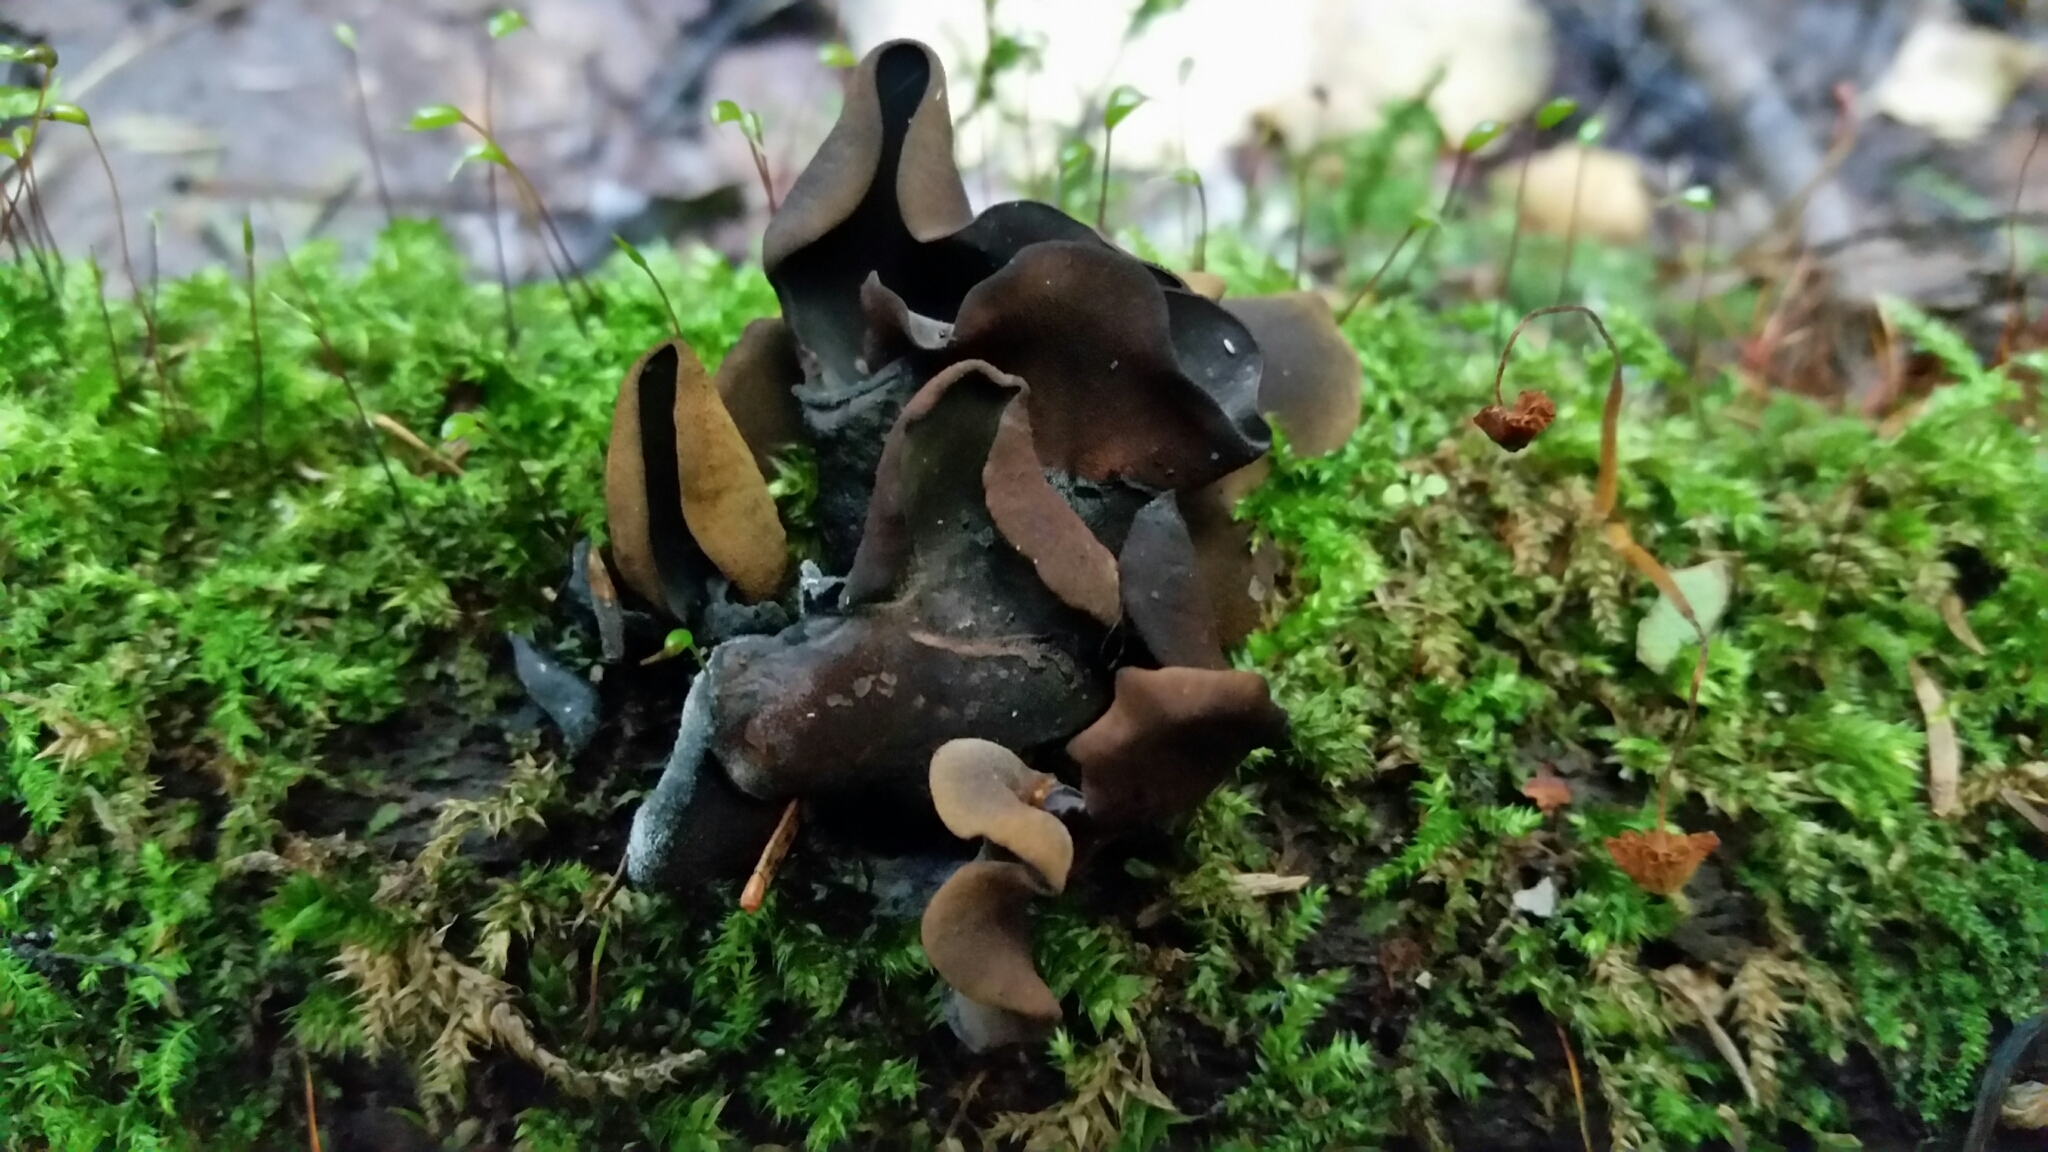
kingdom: Fungi
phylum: Ascomycota
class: Leotiomycetes
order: Helotiales
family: Cordieritidaceae
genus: Diplocarpa
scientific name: Diplocarpa irregularis
